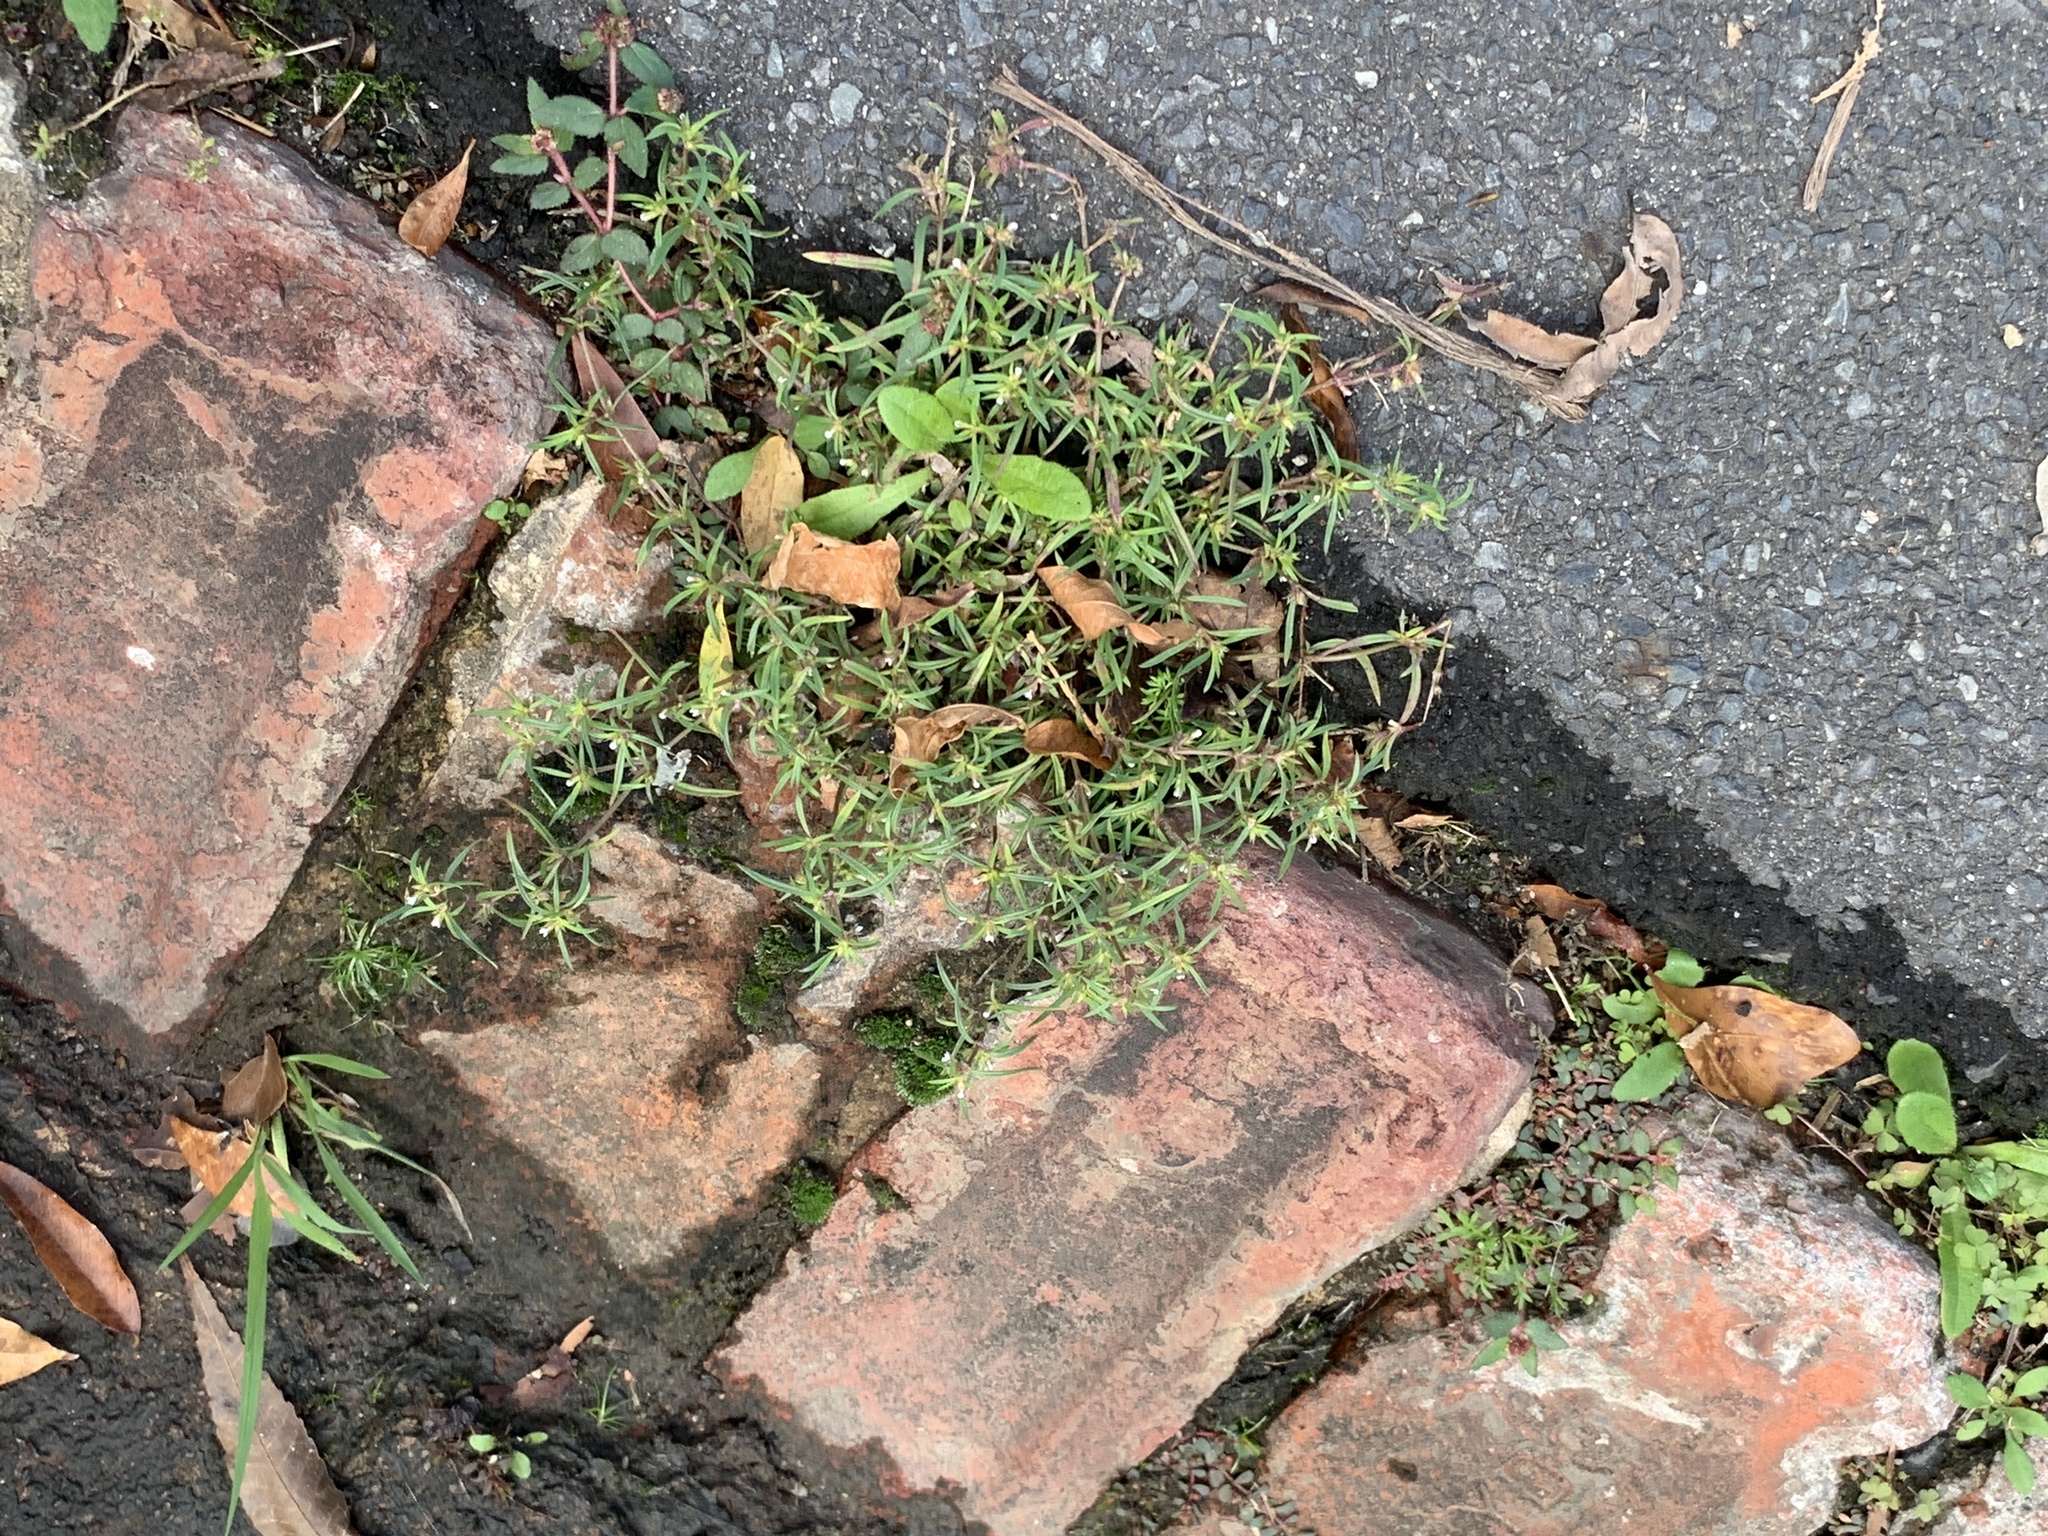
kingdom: Plantae
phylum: Tracheophyta
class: Magnoliopsida
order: Gentianales
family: Rubiaceae
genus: Oldenlandia
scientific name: Oldenlandia capensis
